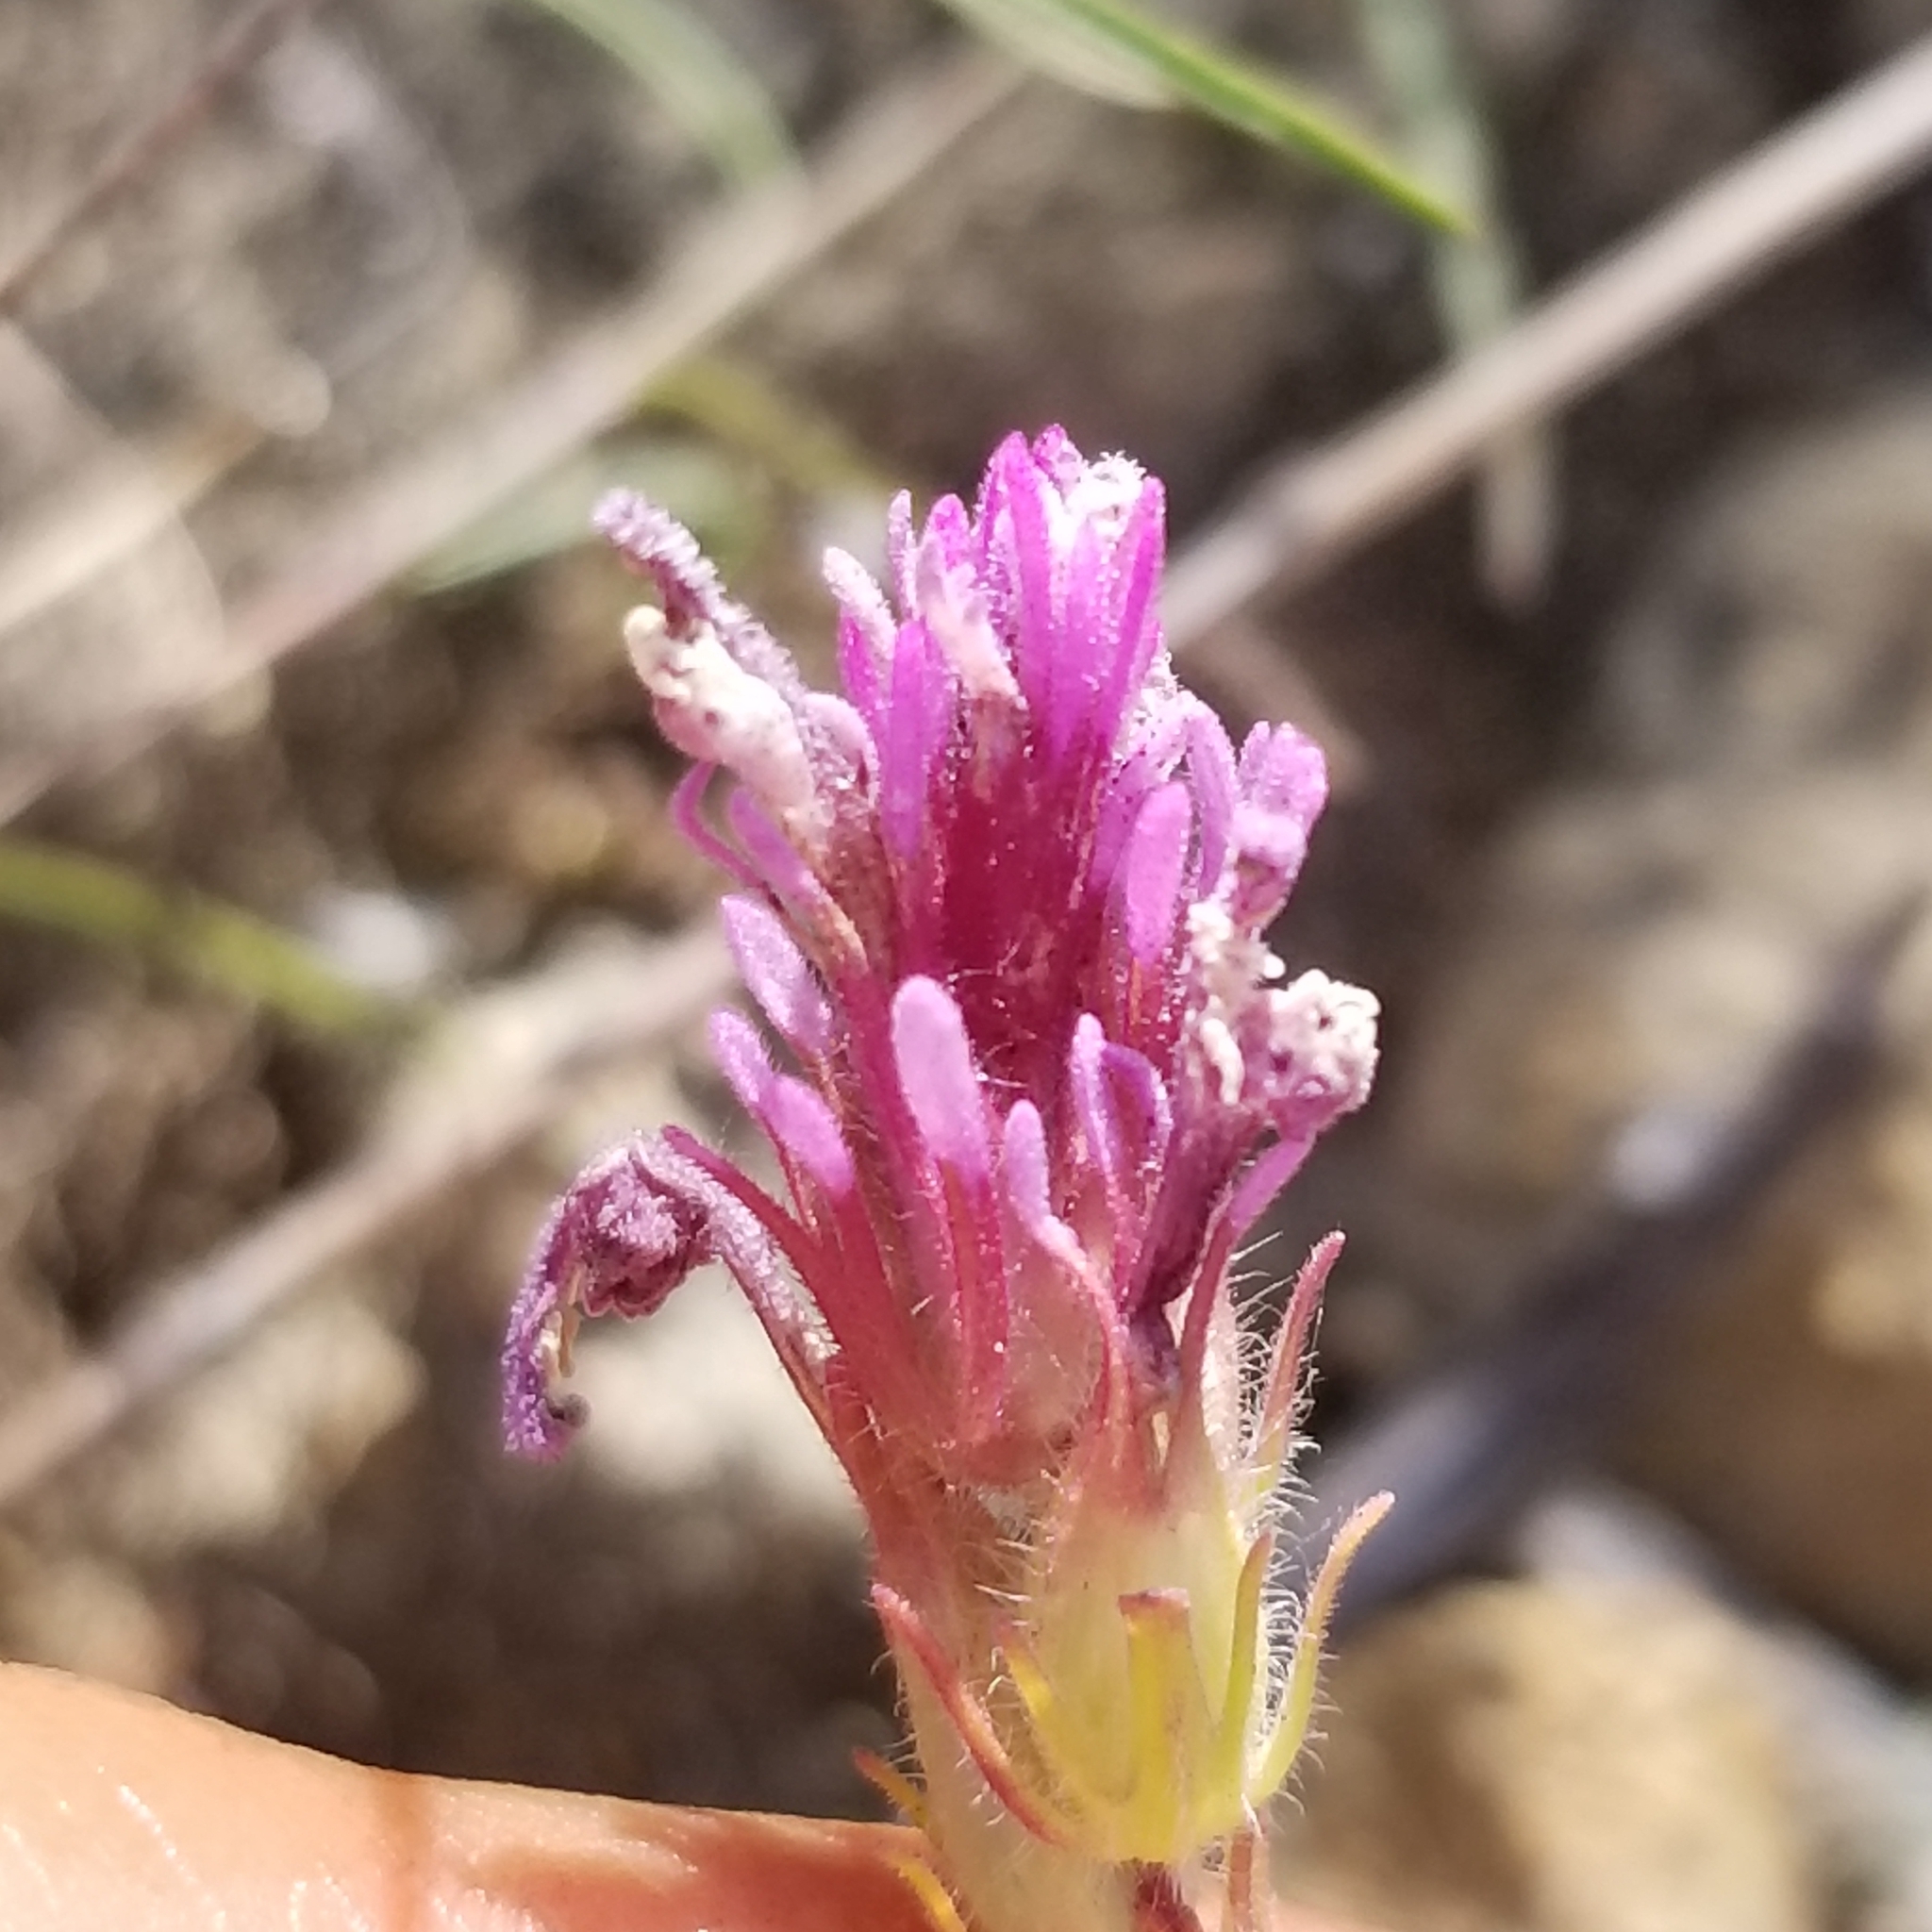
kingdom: Plantae
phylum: Tracheophyta
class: Magnoliopsida
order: Lamiales
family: Orobanchaceae
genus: Castilleja
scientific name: Castilleja exserta
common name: Purple owl-clover
